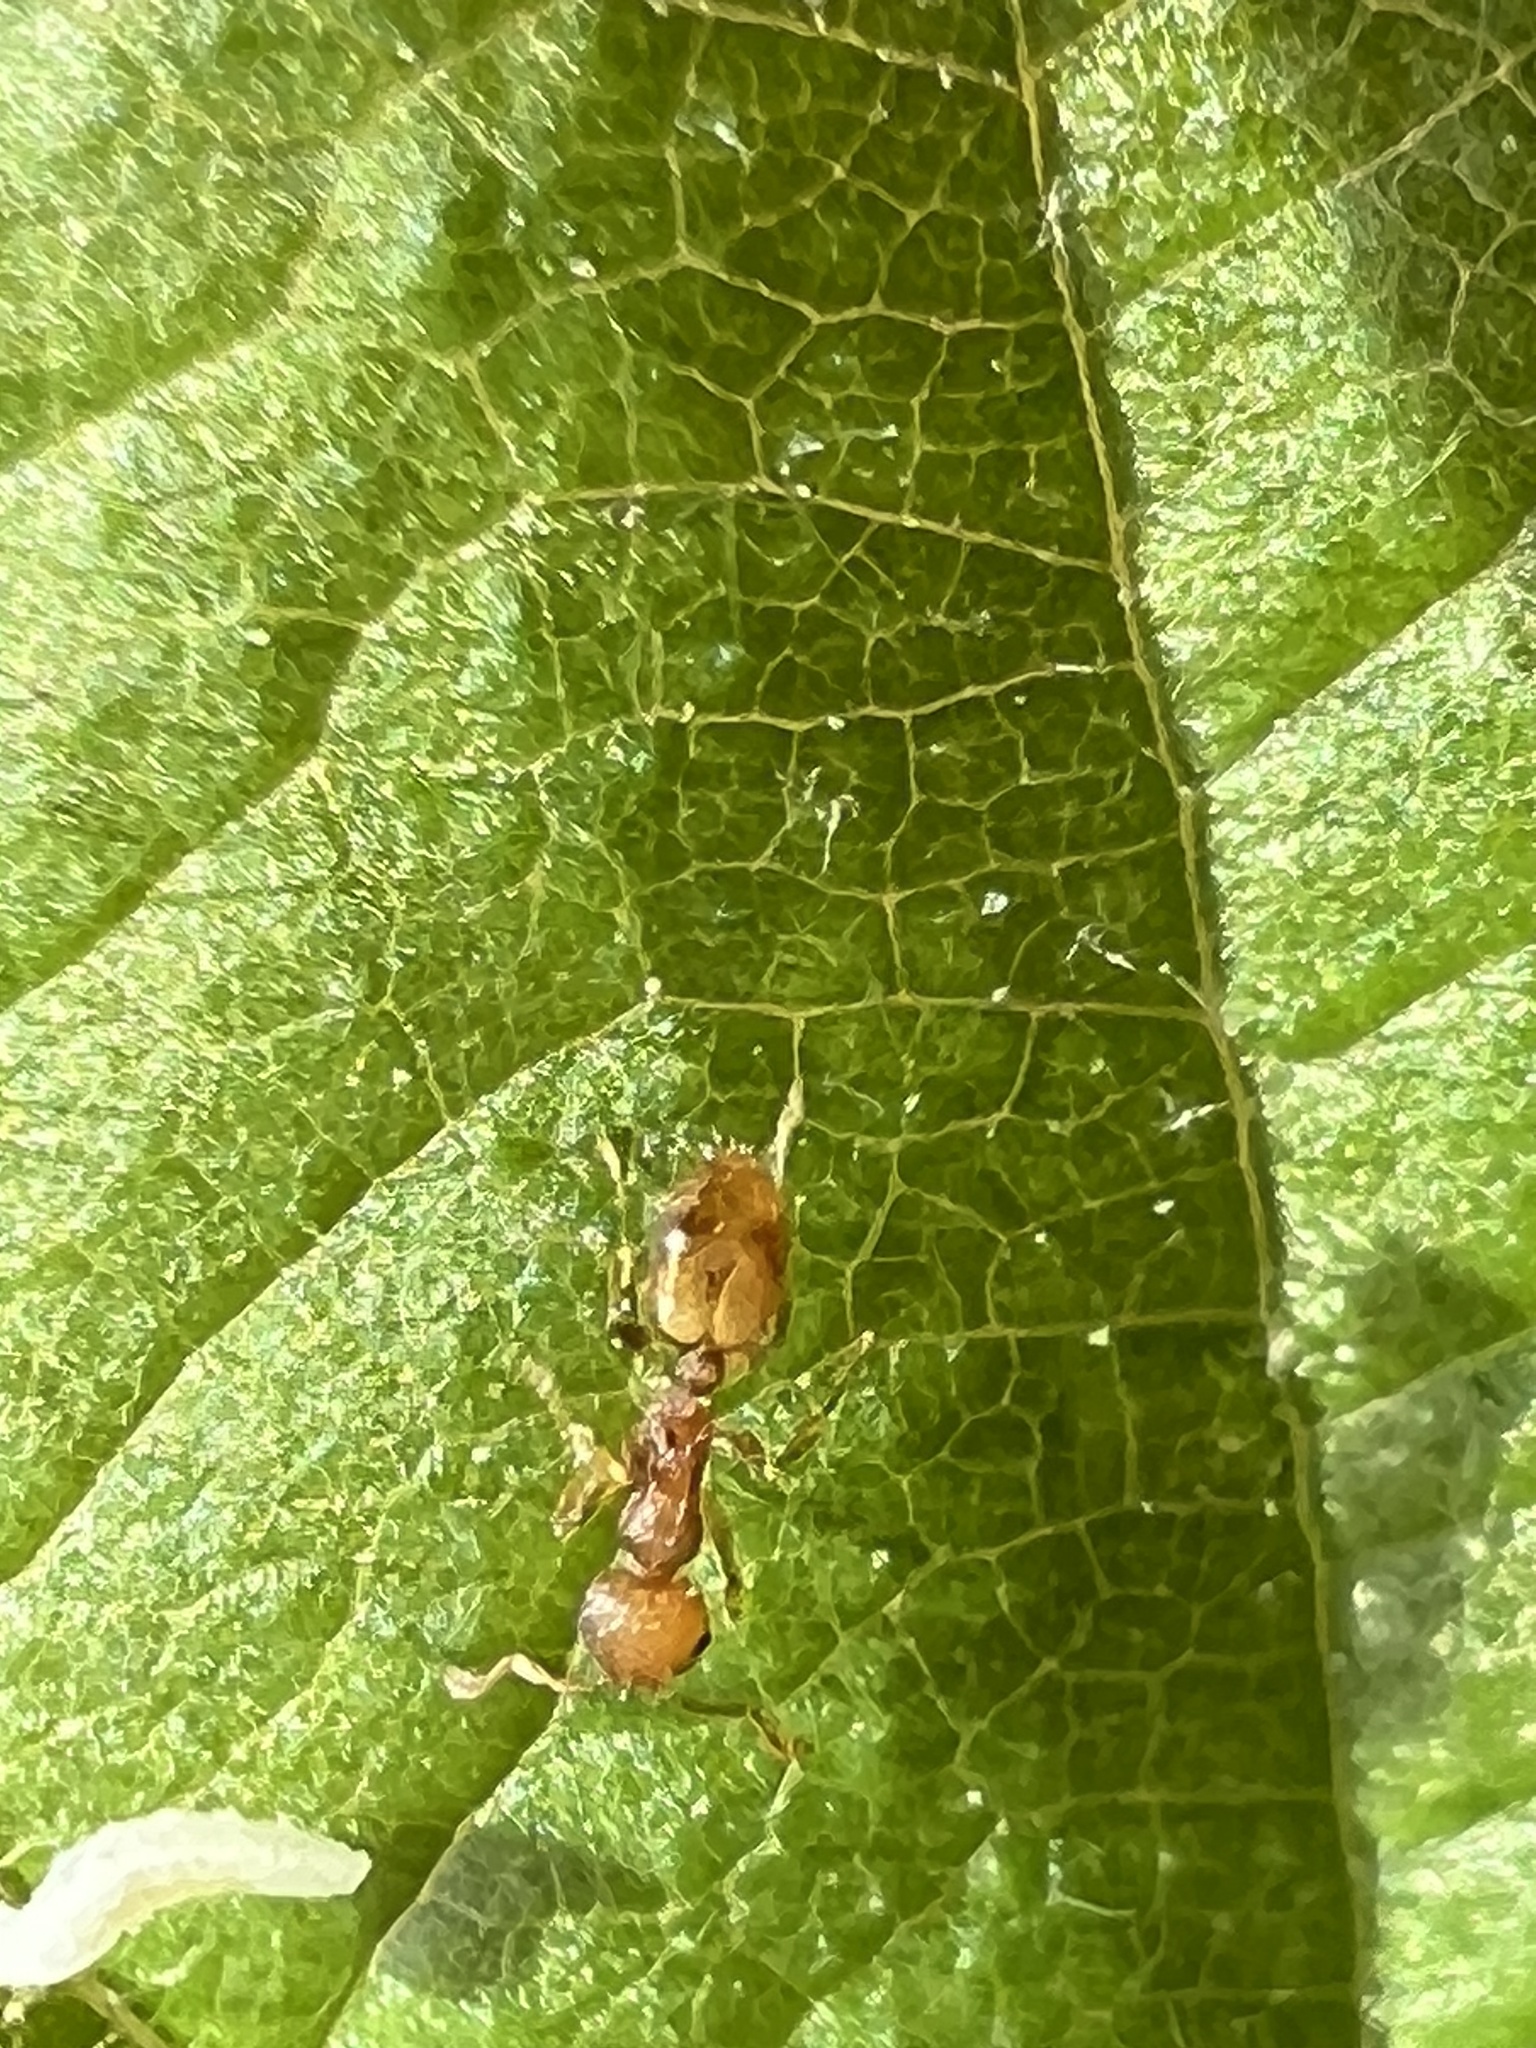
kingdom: Animalia
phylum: Arthropoda
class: Insecta
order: Hymenoptera
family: Formicidae
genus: Temnothorax
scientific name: Temnothorax curvispinosus
